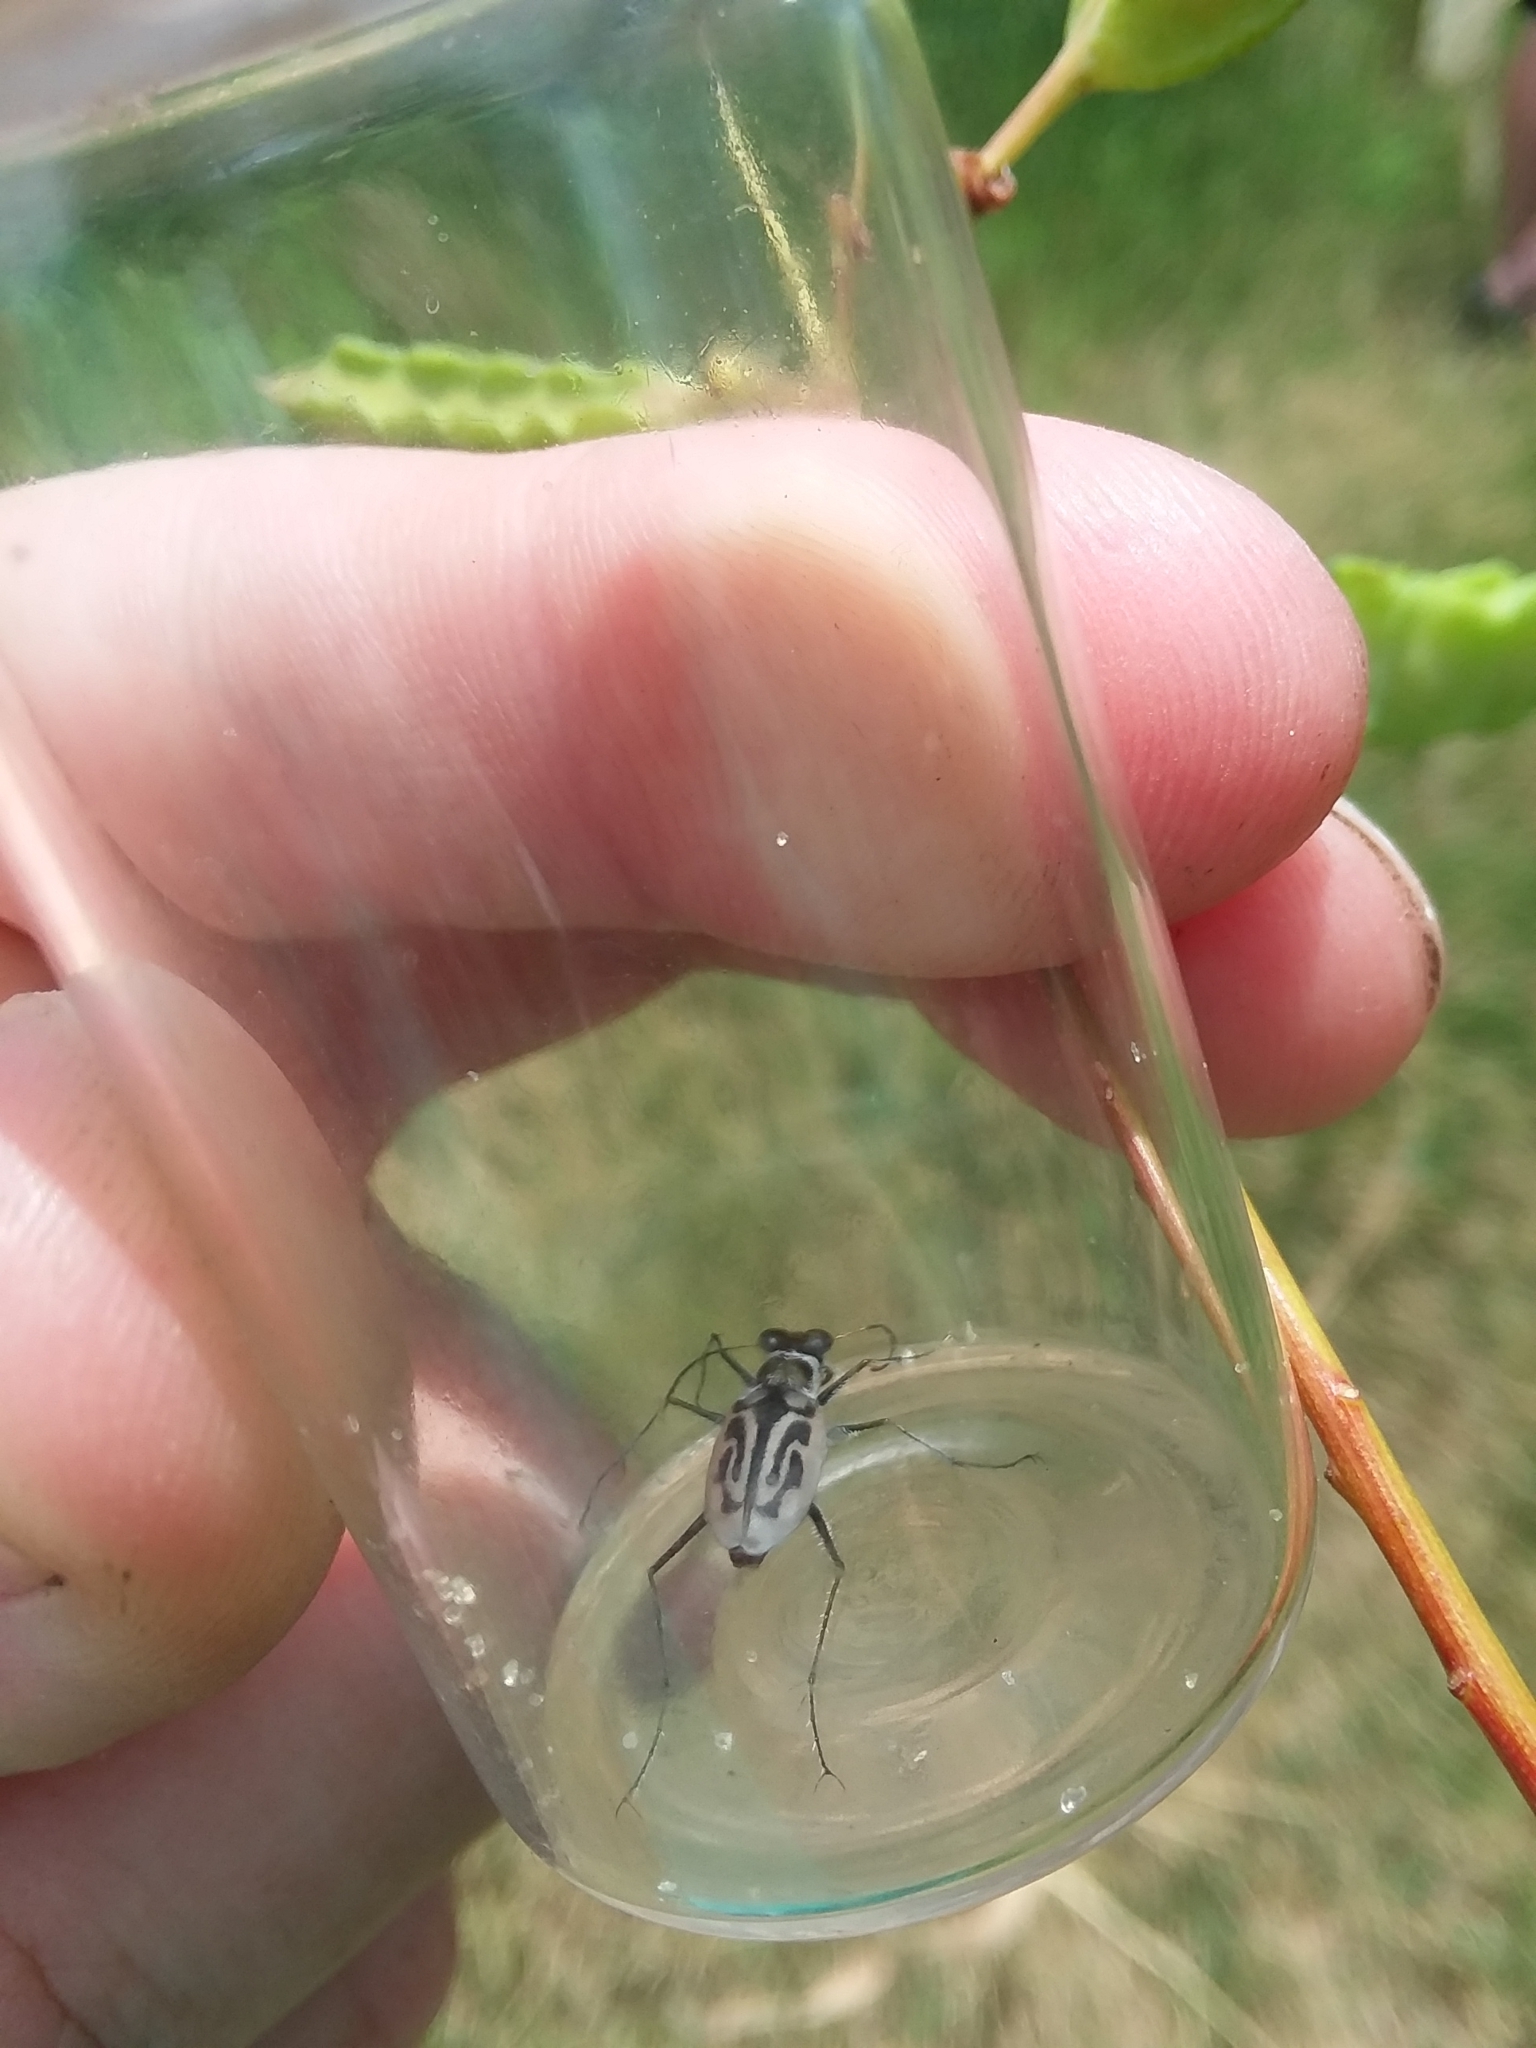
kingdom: Animalia
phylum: Arthropoda
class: Insecta
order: Coleoptera
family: Carabidae
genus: Habroscelimorpha
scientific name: Habroscelimorpha dorsalis
